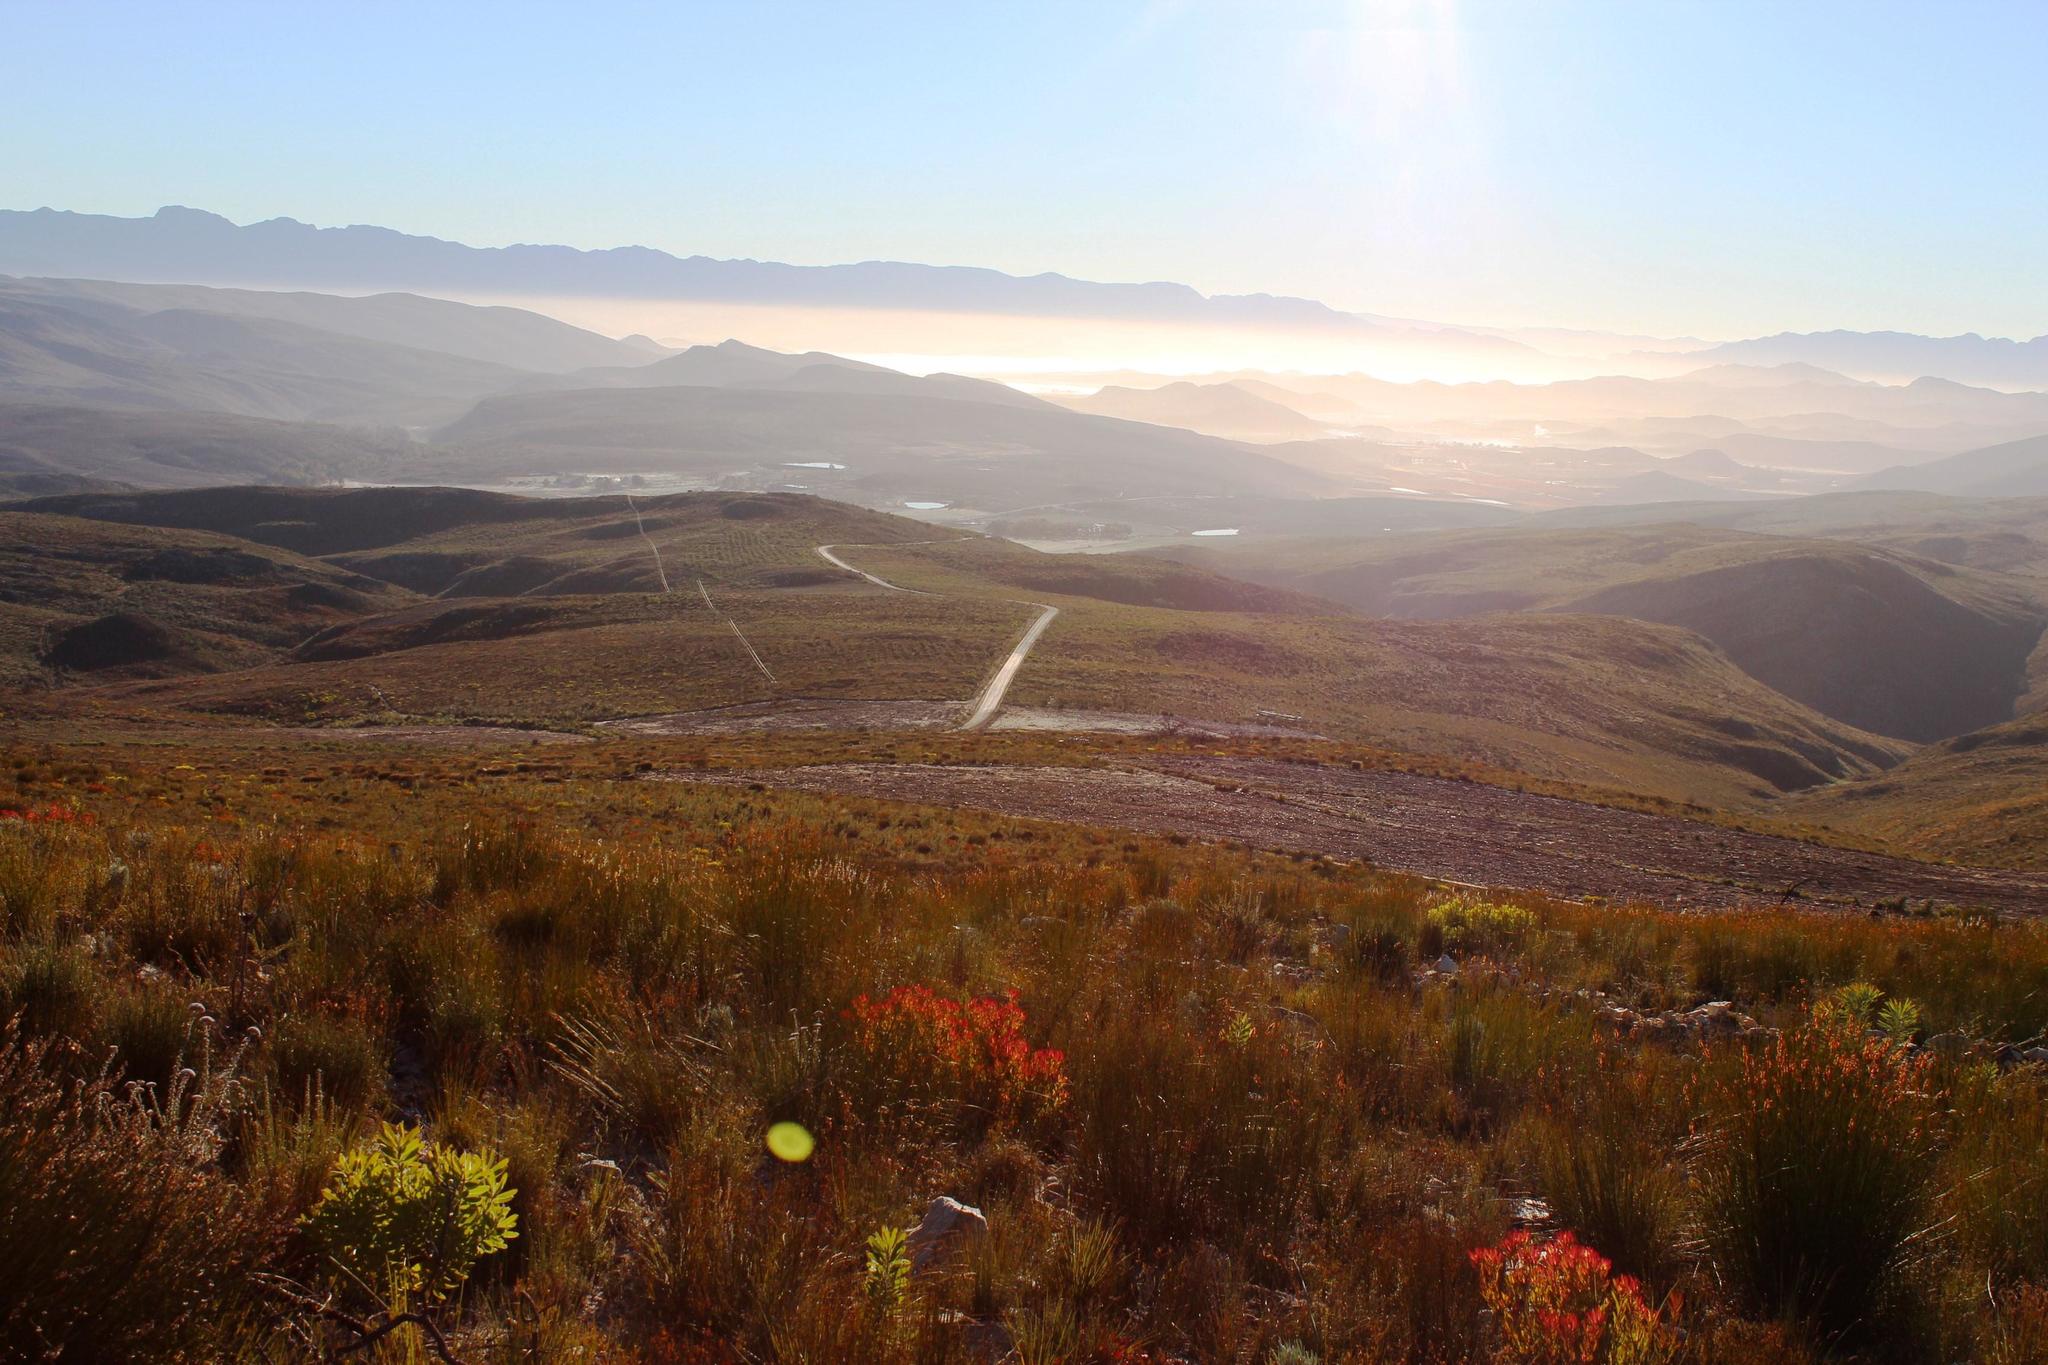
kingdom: Plantae
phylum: Tracheophyta
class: Magnoliopsida
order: Proteales
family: Proteaceae
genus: Leucadendron
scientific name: Leucadendron salignum
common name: Common sunshine conebush
